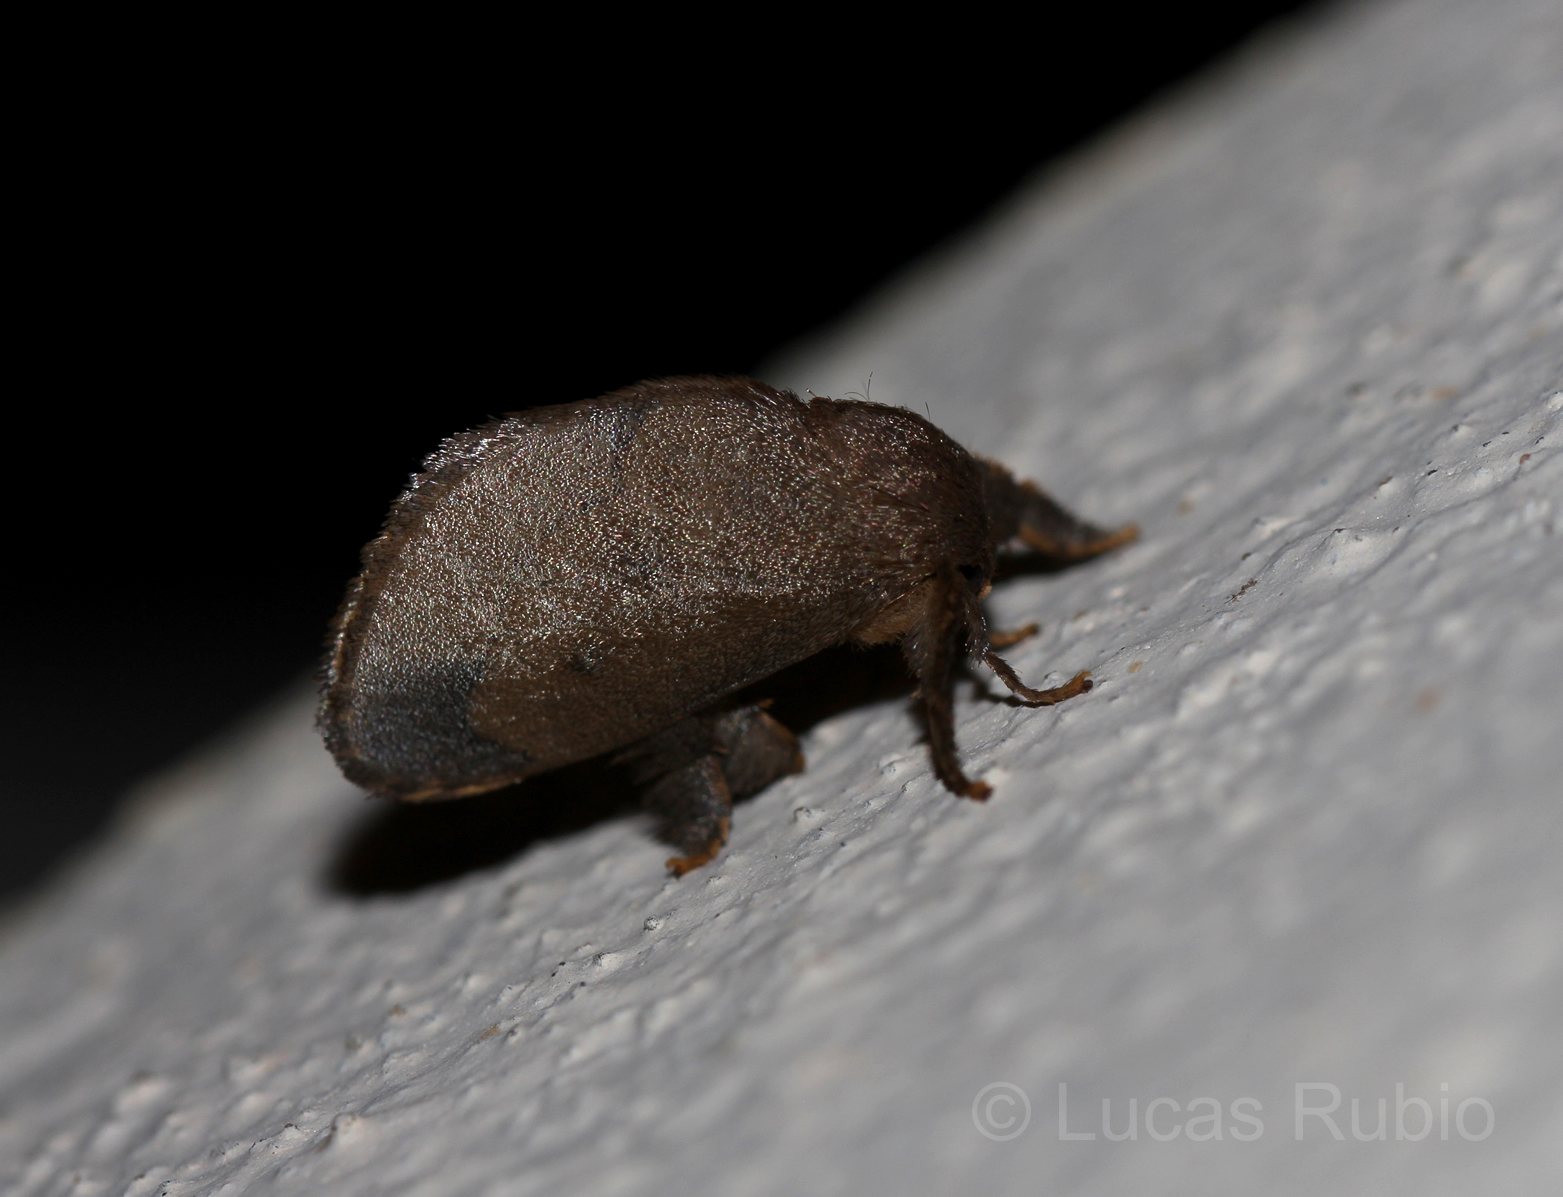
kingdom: Animalia
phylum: Arthropoda
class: Insecta
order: Lepidoptera
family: Limacodidae
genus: Talima
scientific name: Talima postica
